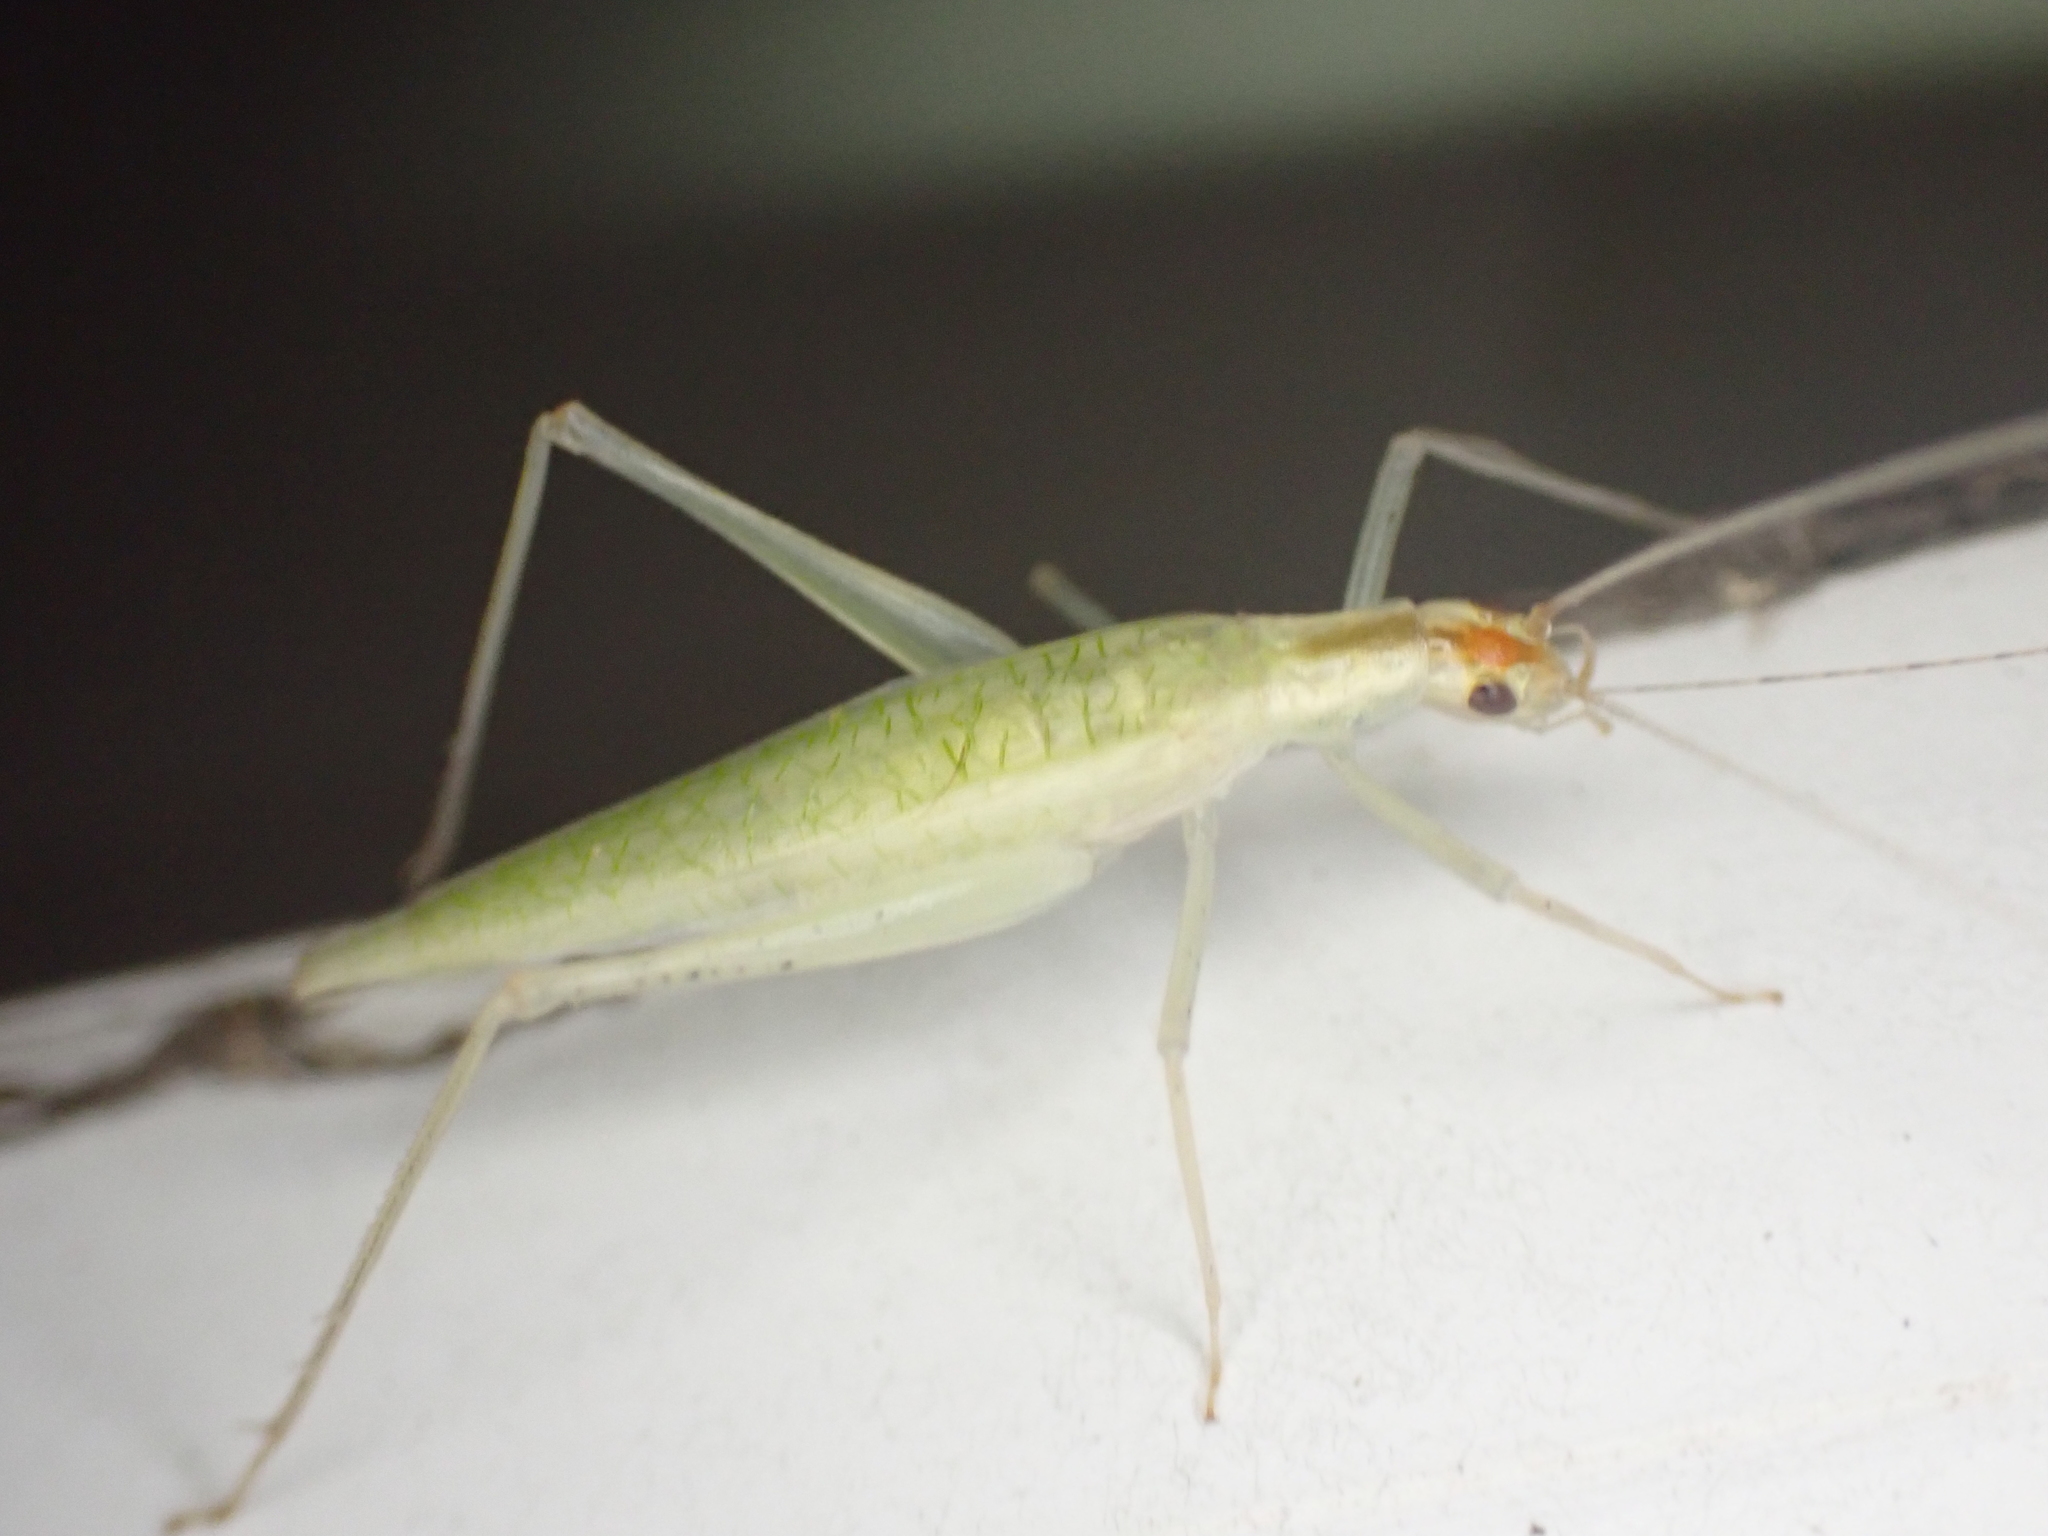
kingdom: Animalia
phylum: Arthropoda
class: Insecta
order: Orthoptera
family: Gryllidae
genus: Oecanthus
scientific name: Oecanthus niveus
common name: Narrow-winged tree cricket
